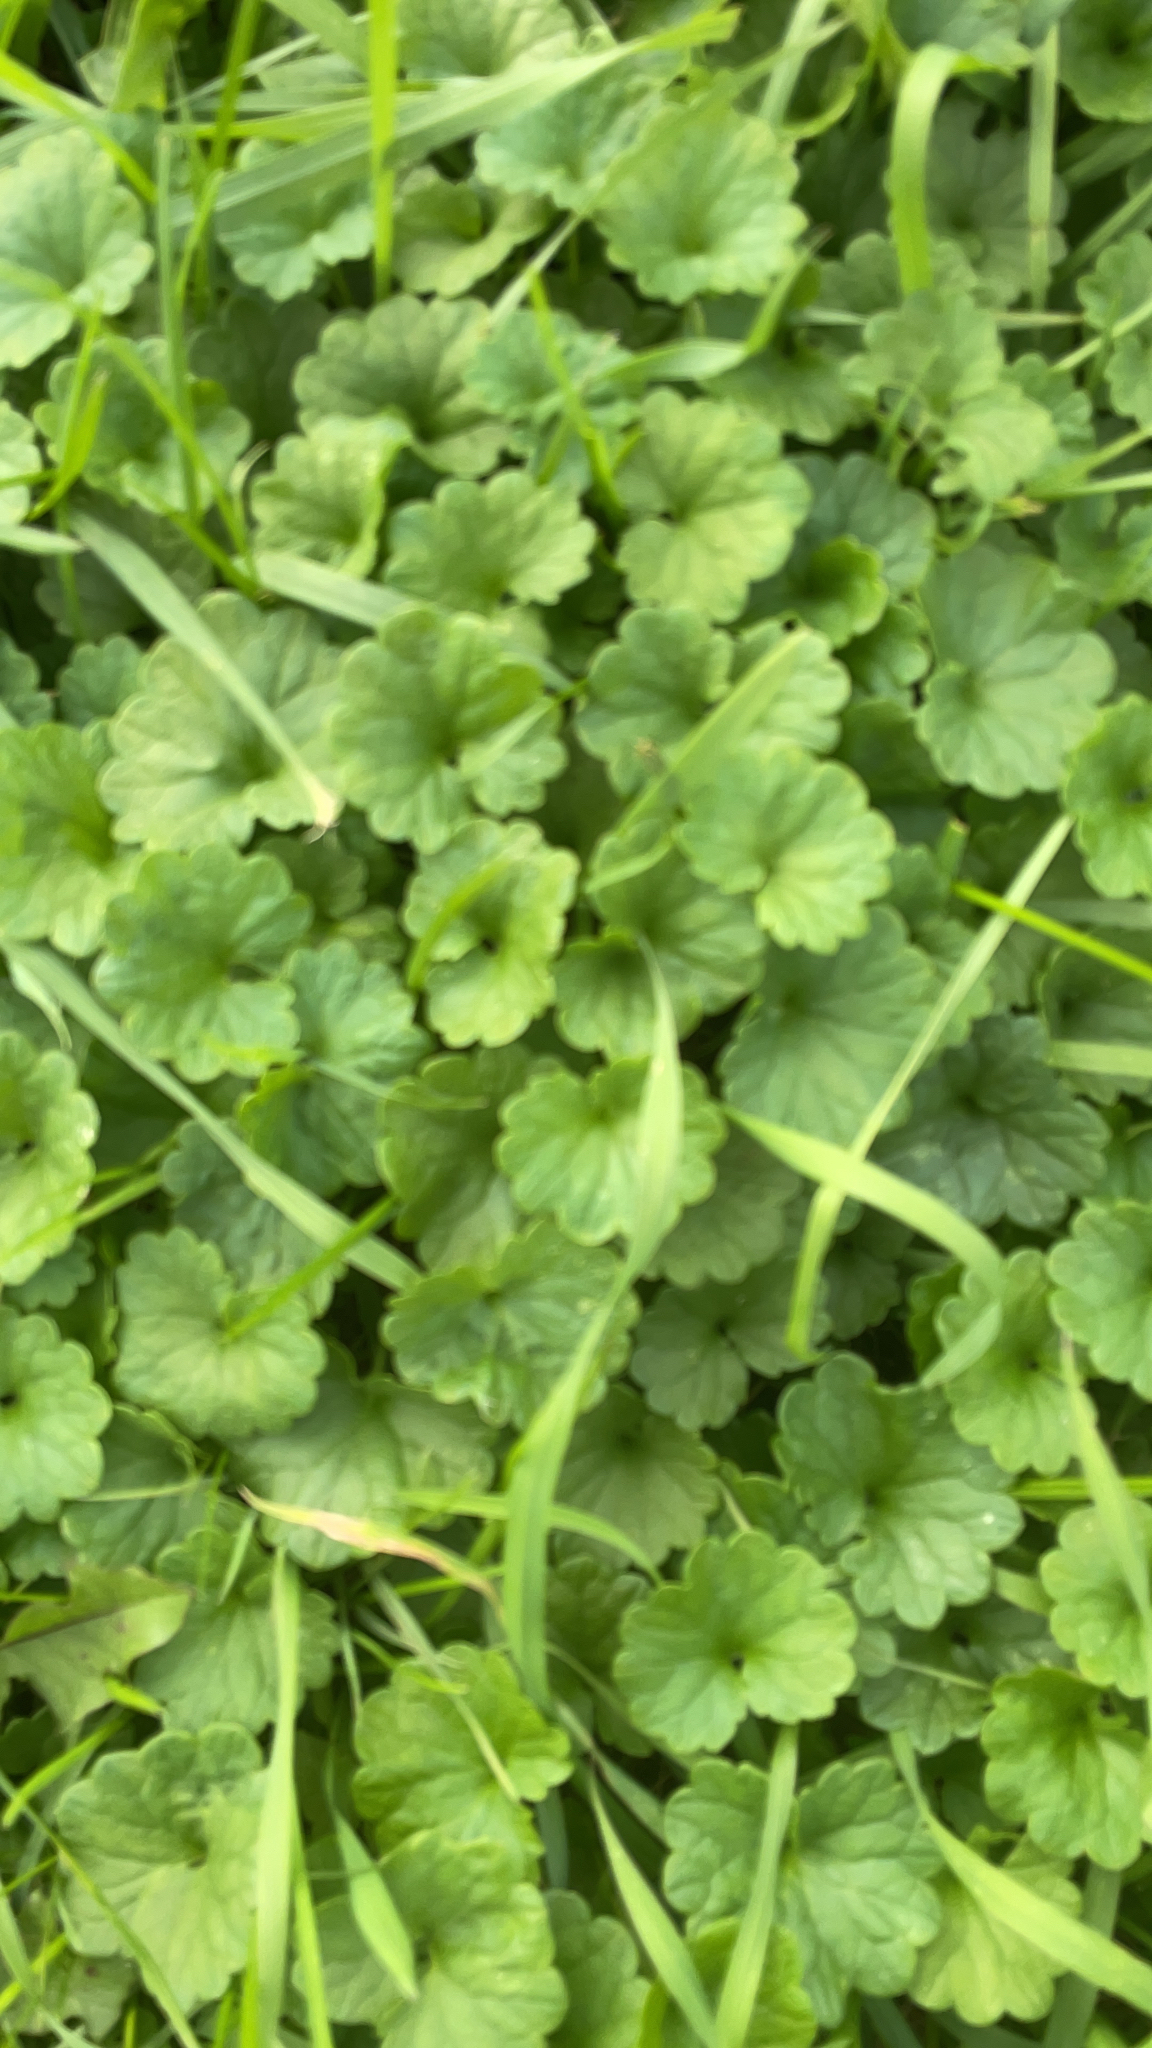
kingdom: Plantae
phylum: Tracheophyta
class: Magnoliopsida
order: Lamiales
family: Lamiaceae
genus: Glechoma
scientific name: Glechoma hederacea
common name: Ground ivy
